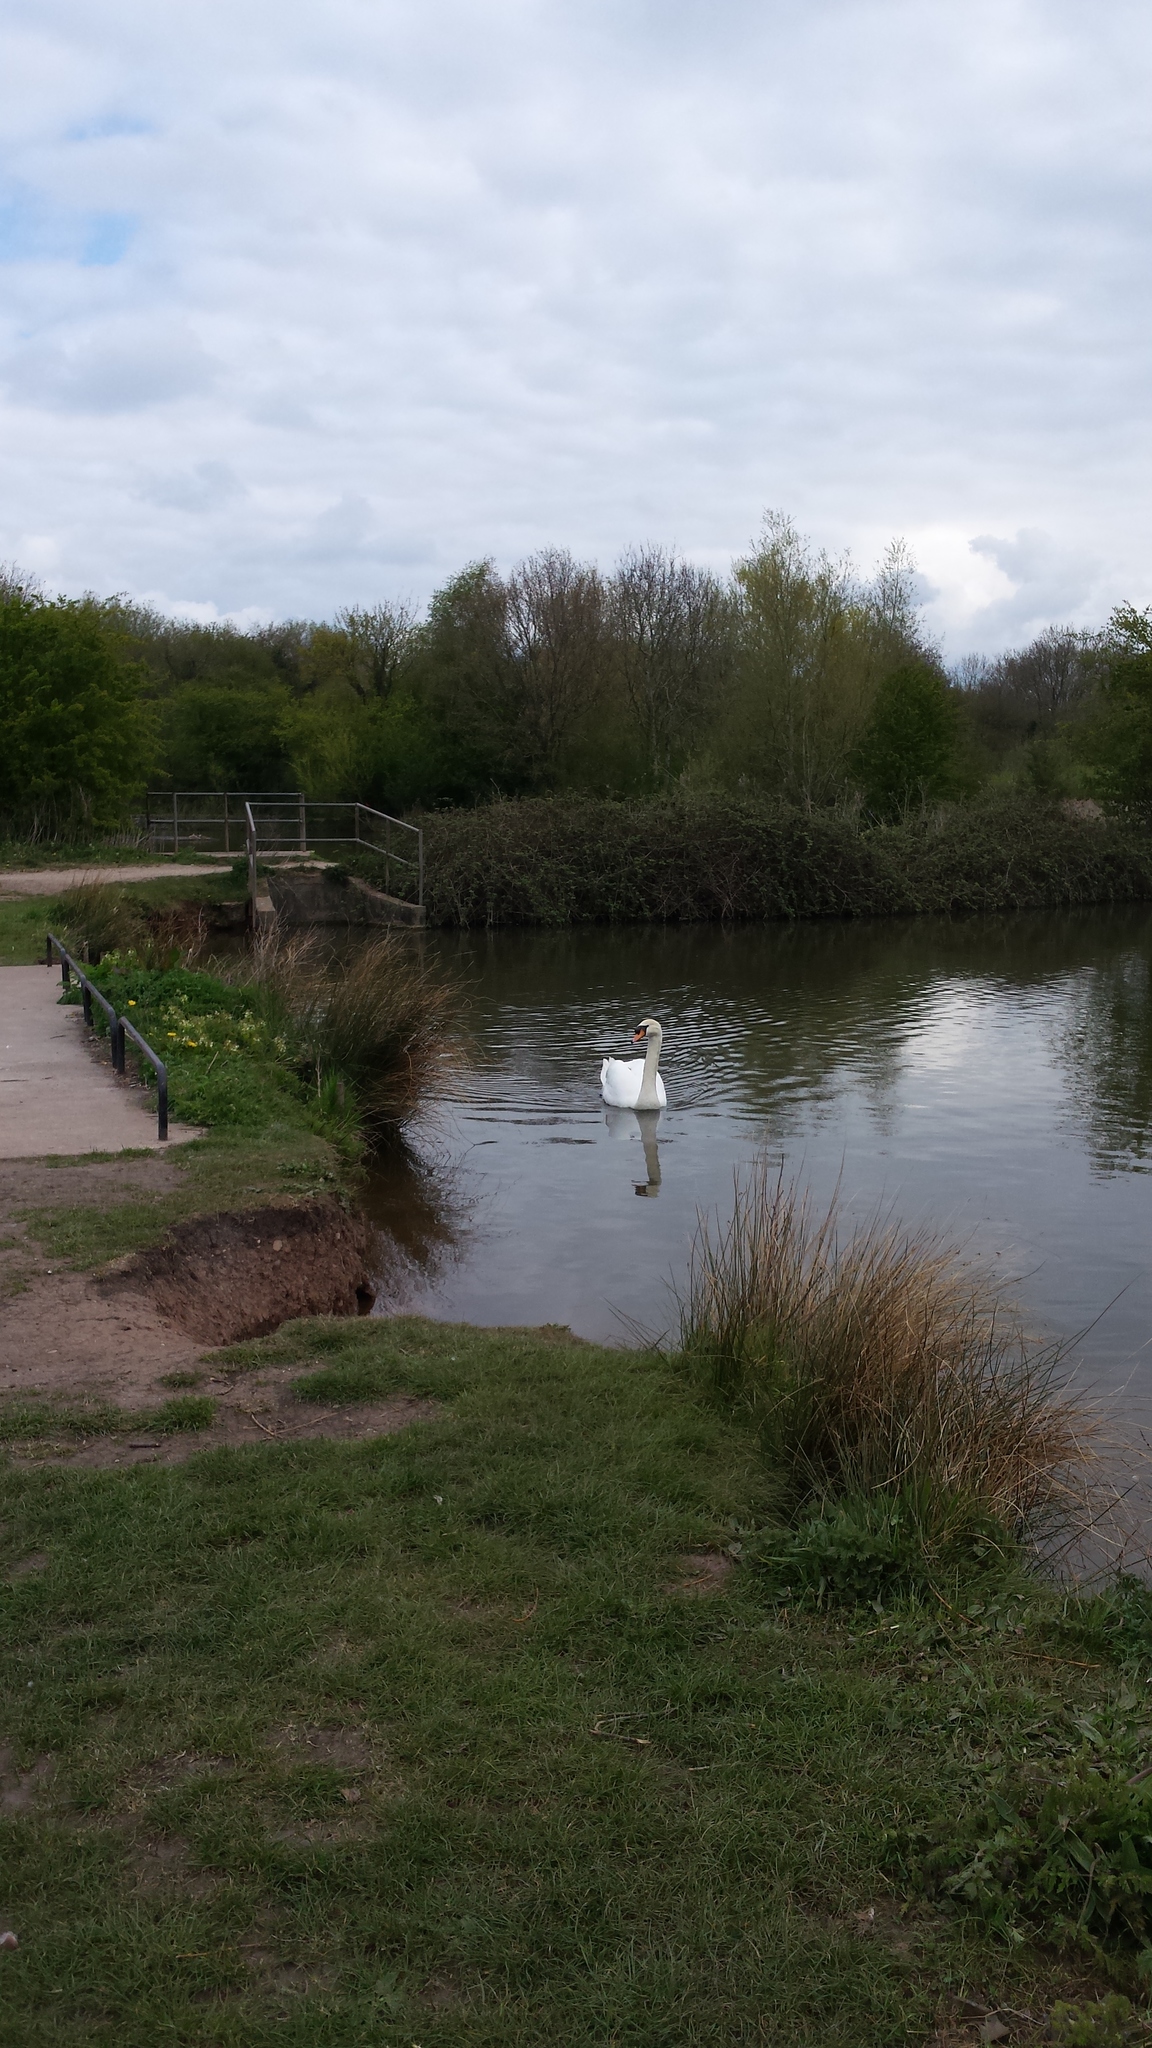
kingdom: Animalia
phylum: Chordata
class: Aves
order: Anseriformes
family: Anatidae
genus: Cygnus
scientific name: Cygnus olor
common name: Mute swan
